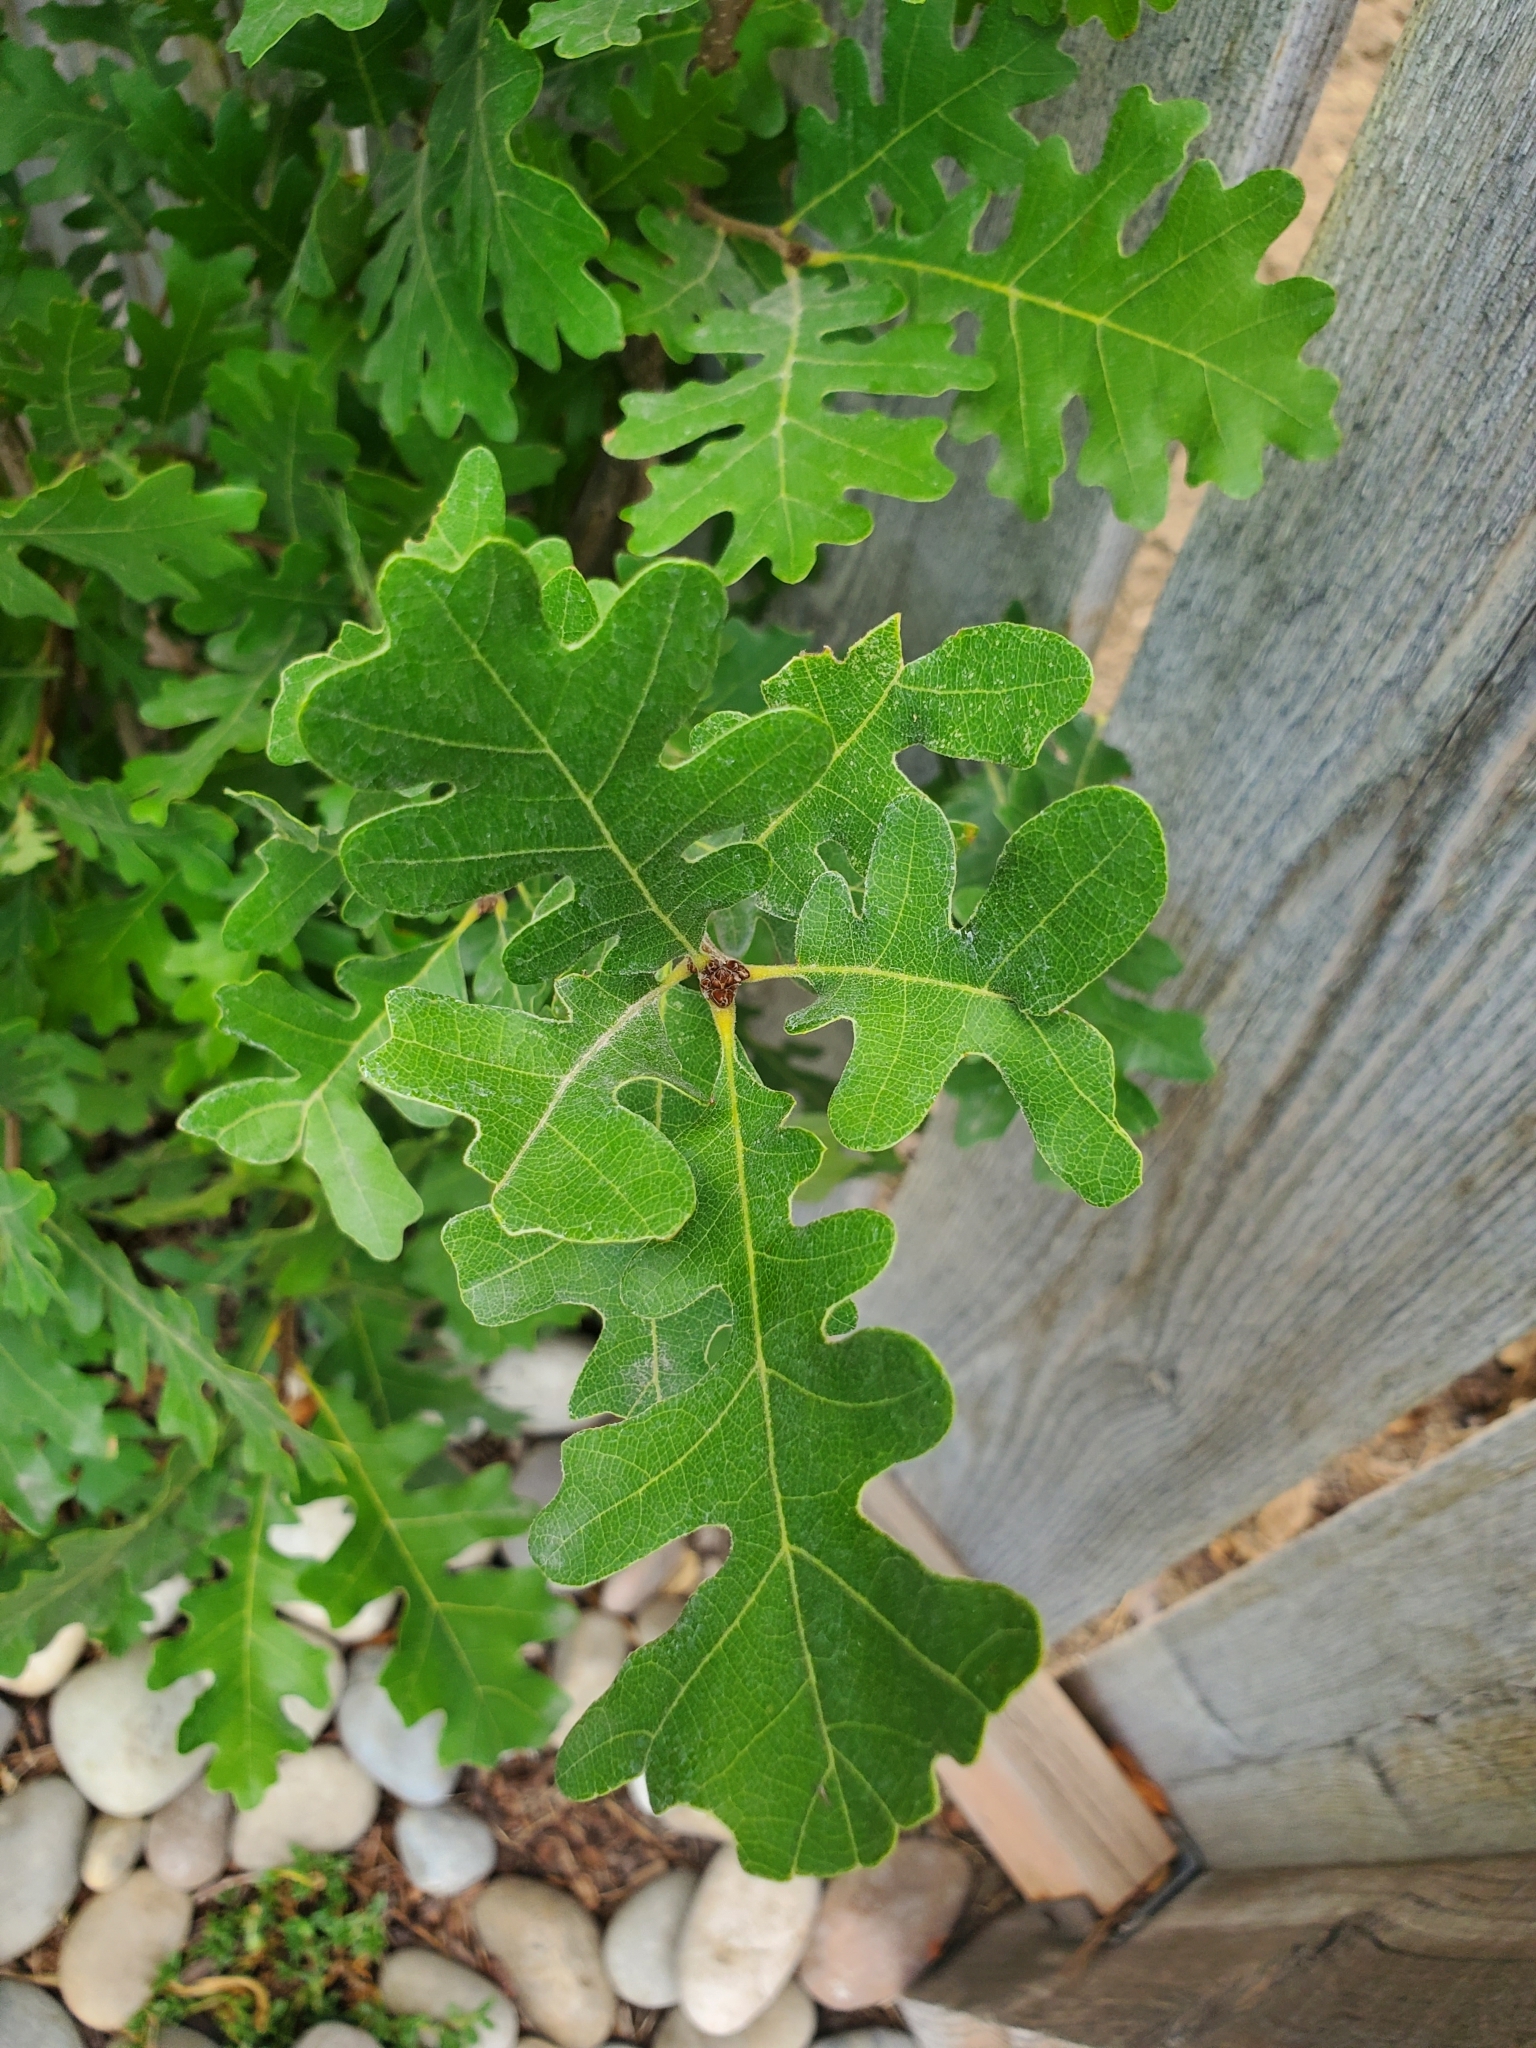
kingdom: Plantae
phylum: Tracheophyta
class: Magnoliopsida
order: Fagales
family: Fagaceae
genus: Quercus
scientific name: Quercus gambelii
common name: Gambel oak
